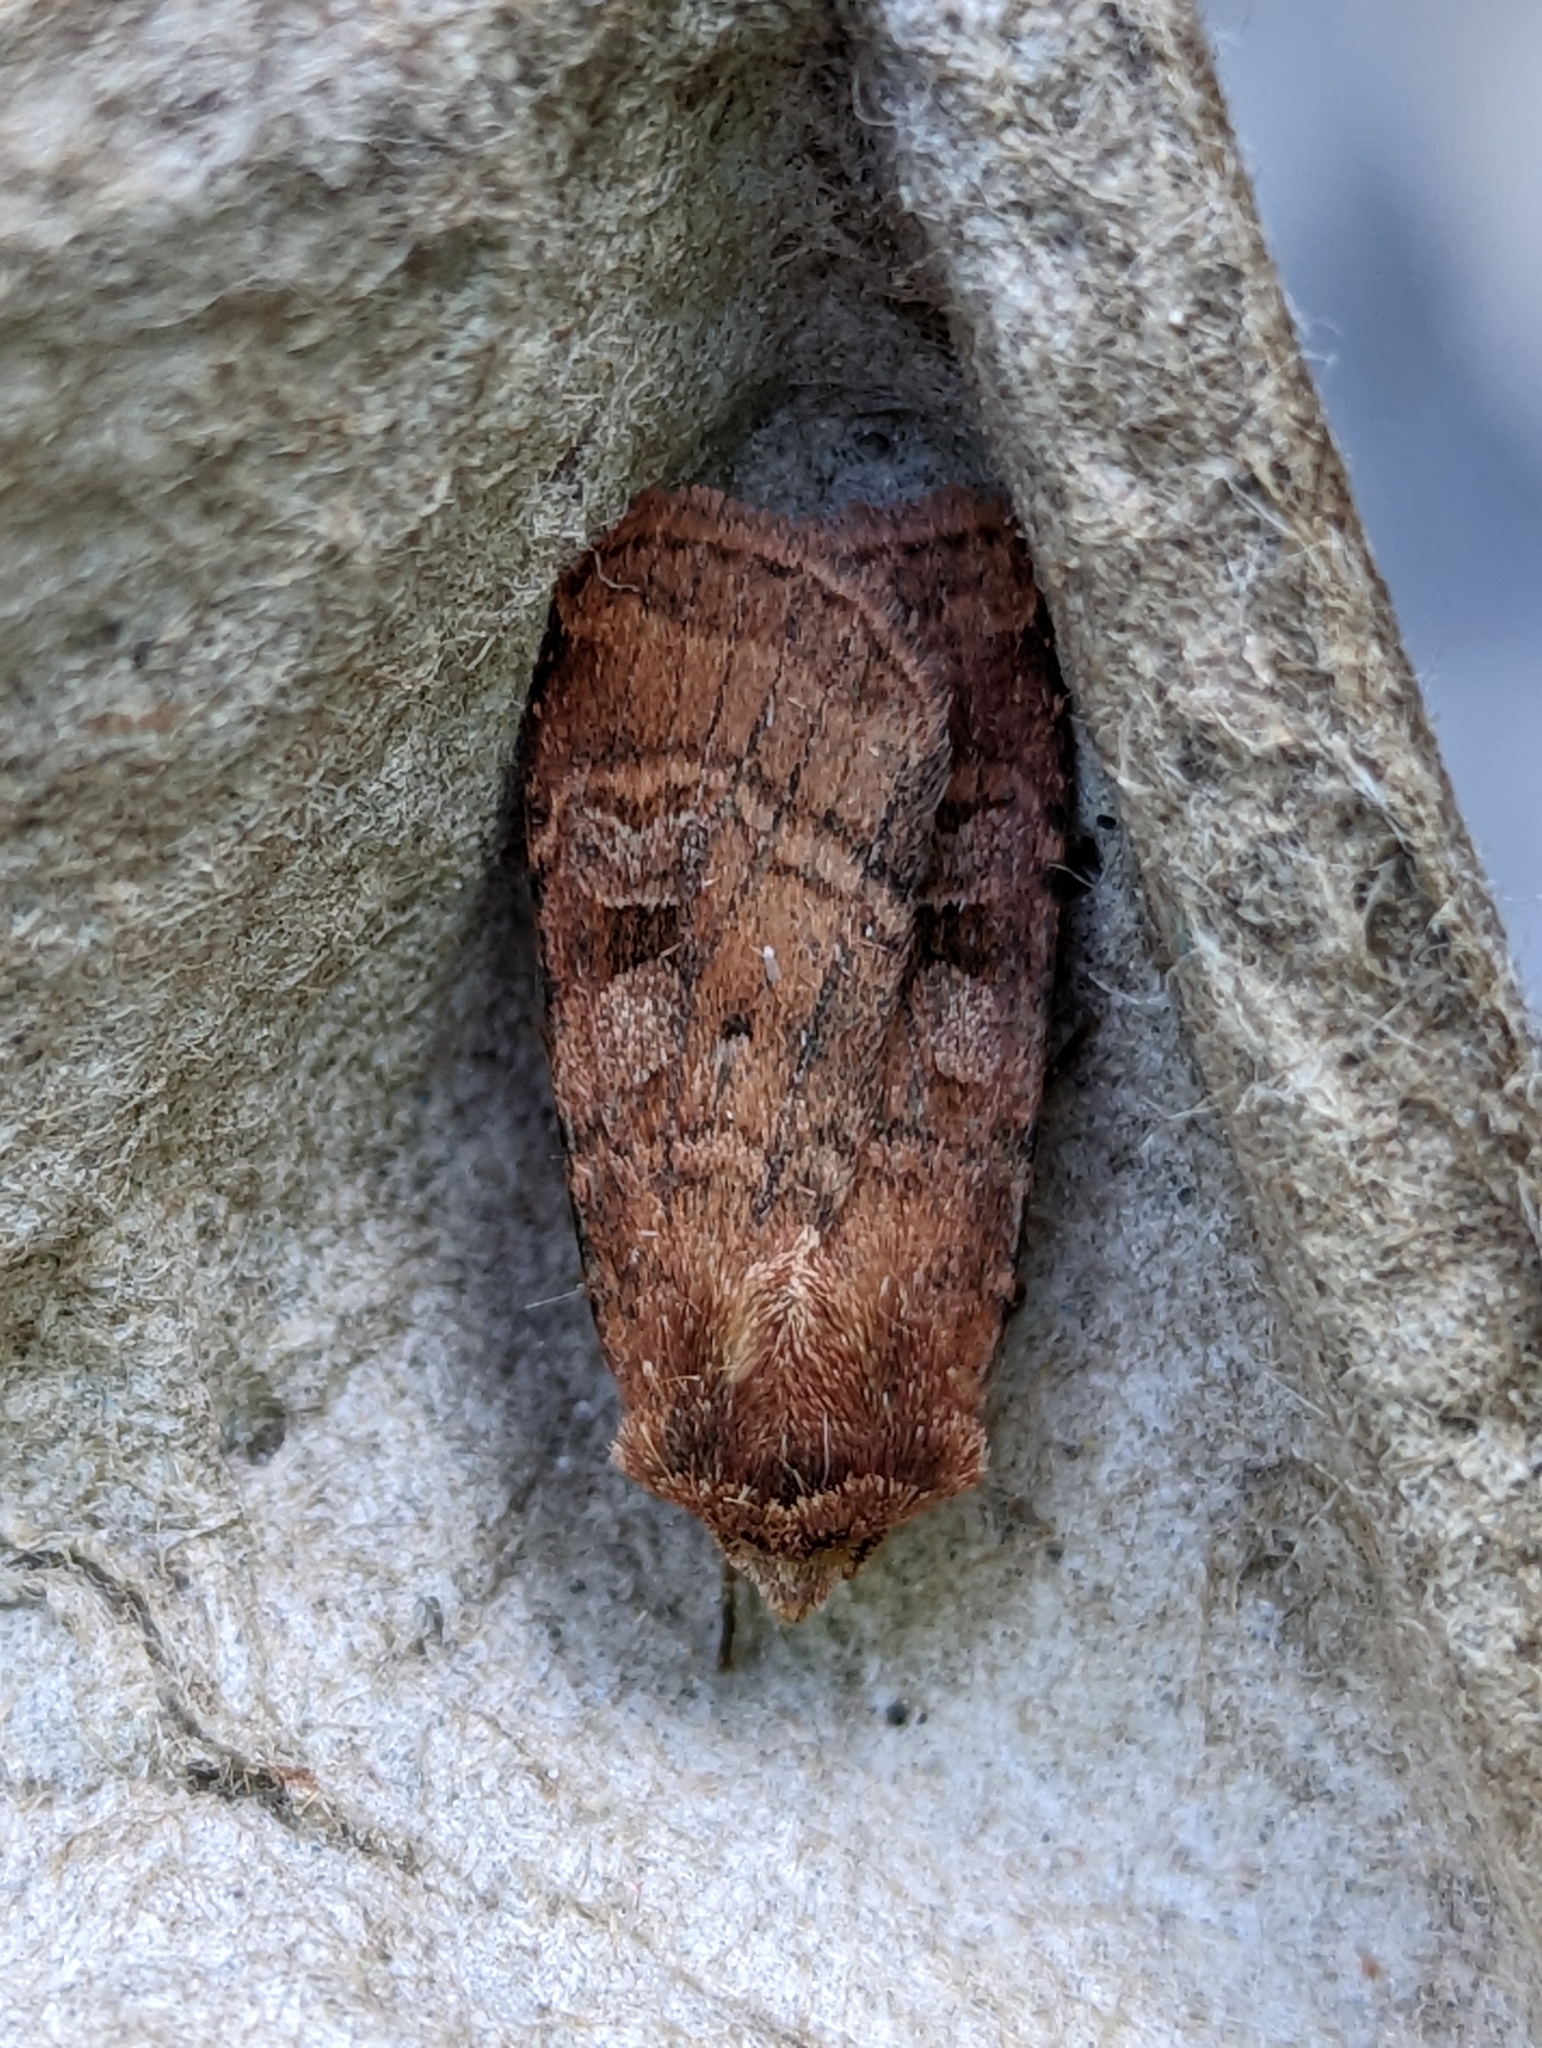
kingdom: Animalia
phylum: Arthropoda
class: Insecta
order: Lepidoptera
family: Noctuidae
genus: Diarsia
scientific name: Diarsia rubi
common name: Small square-spot
